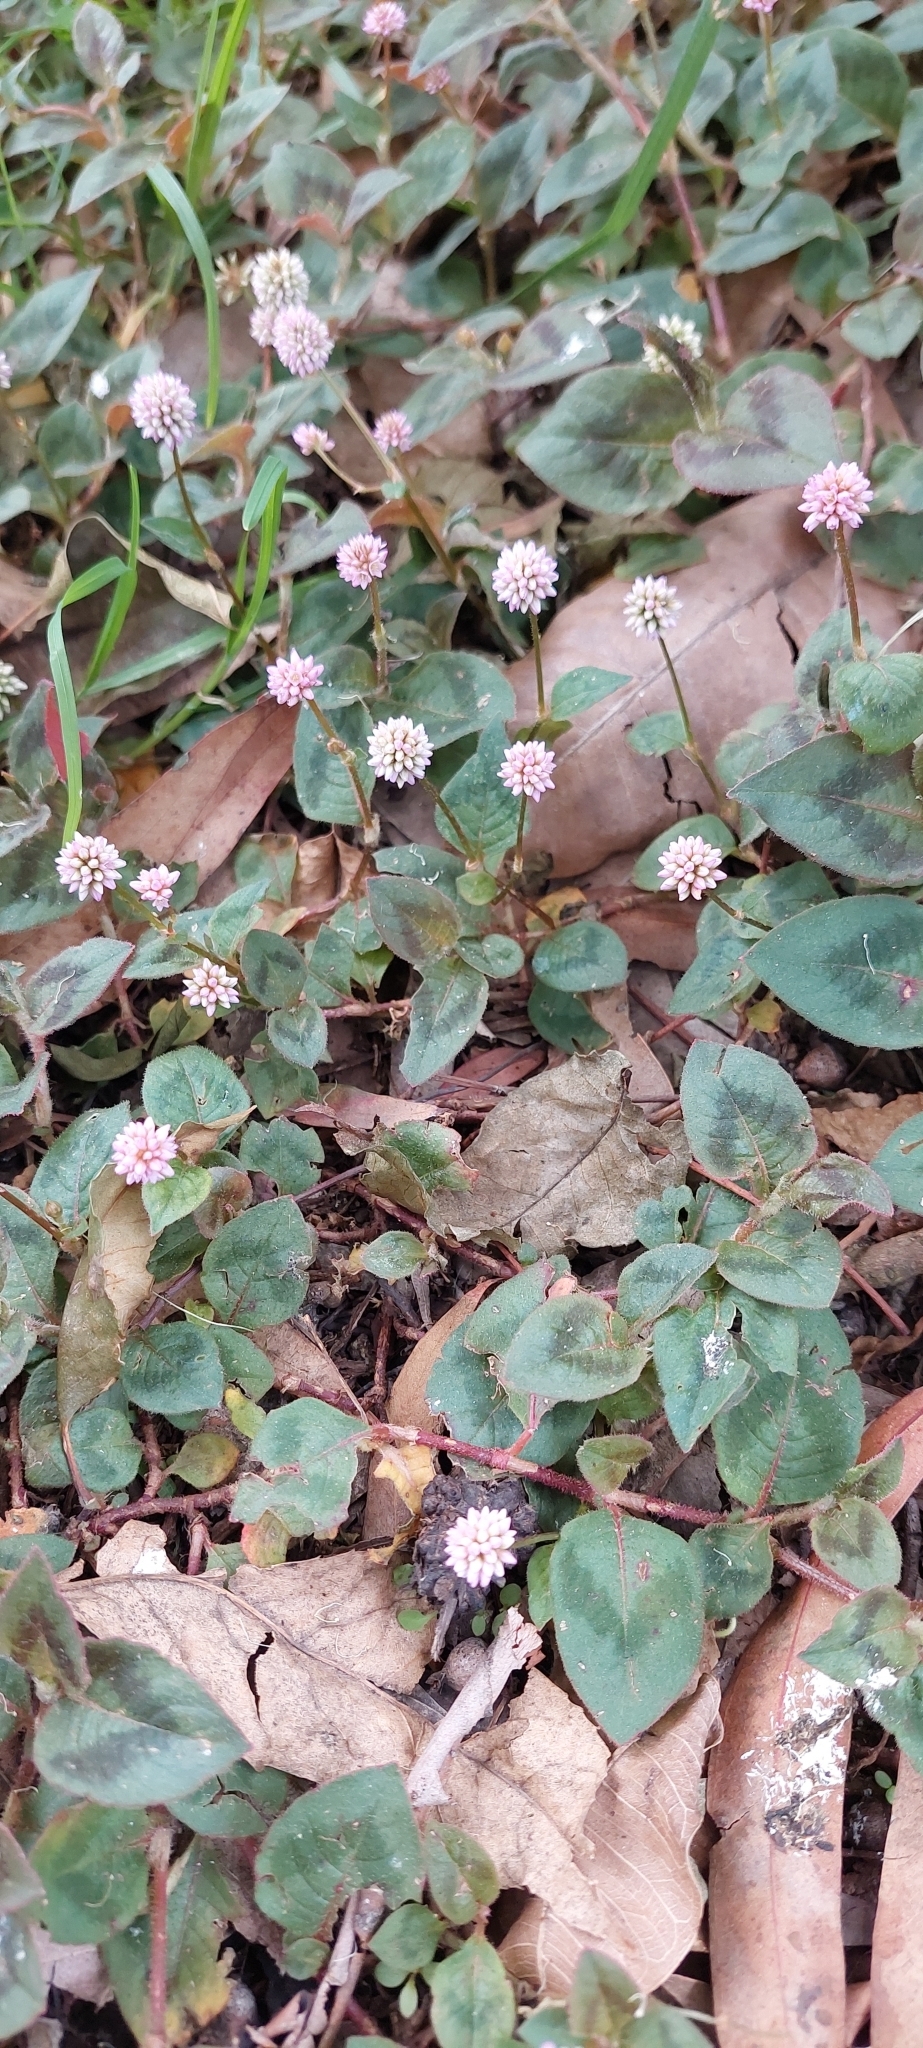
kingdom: Plantae
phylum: Tracheophyta
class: Magnoliopsida
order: Caryophyllales
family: Polygonaceae
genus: Persicaria
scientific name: Persicaria capitata
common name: Pinkhead smartweed
